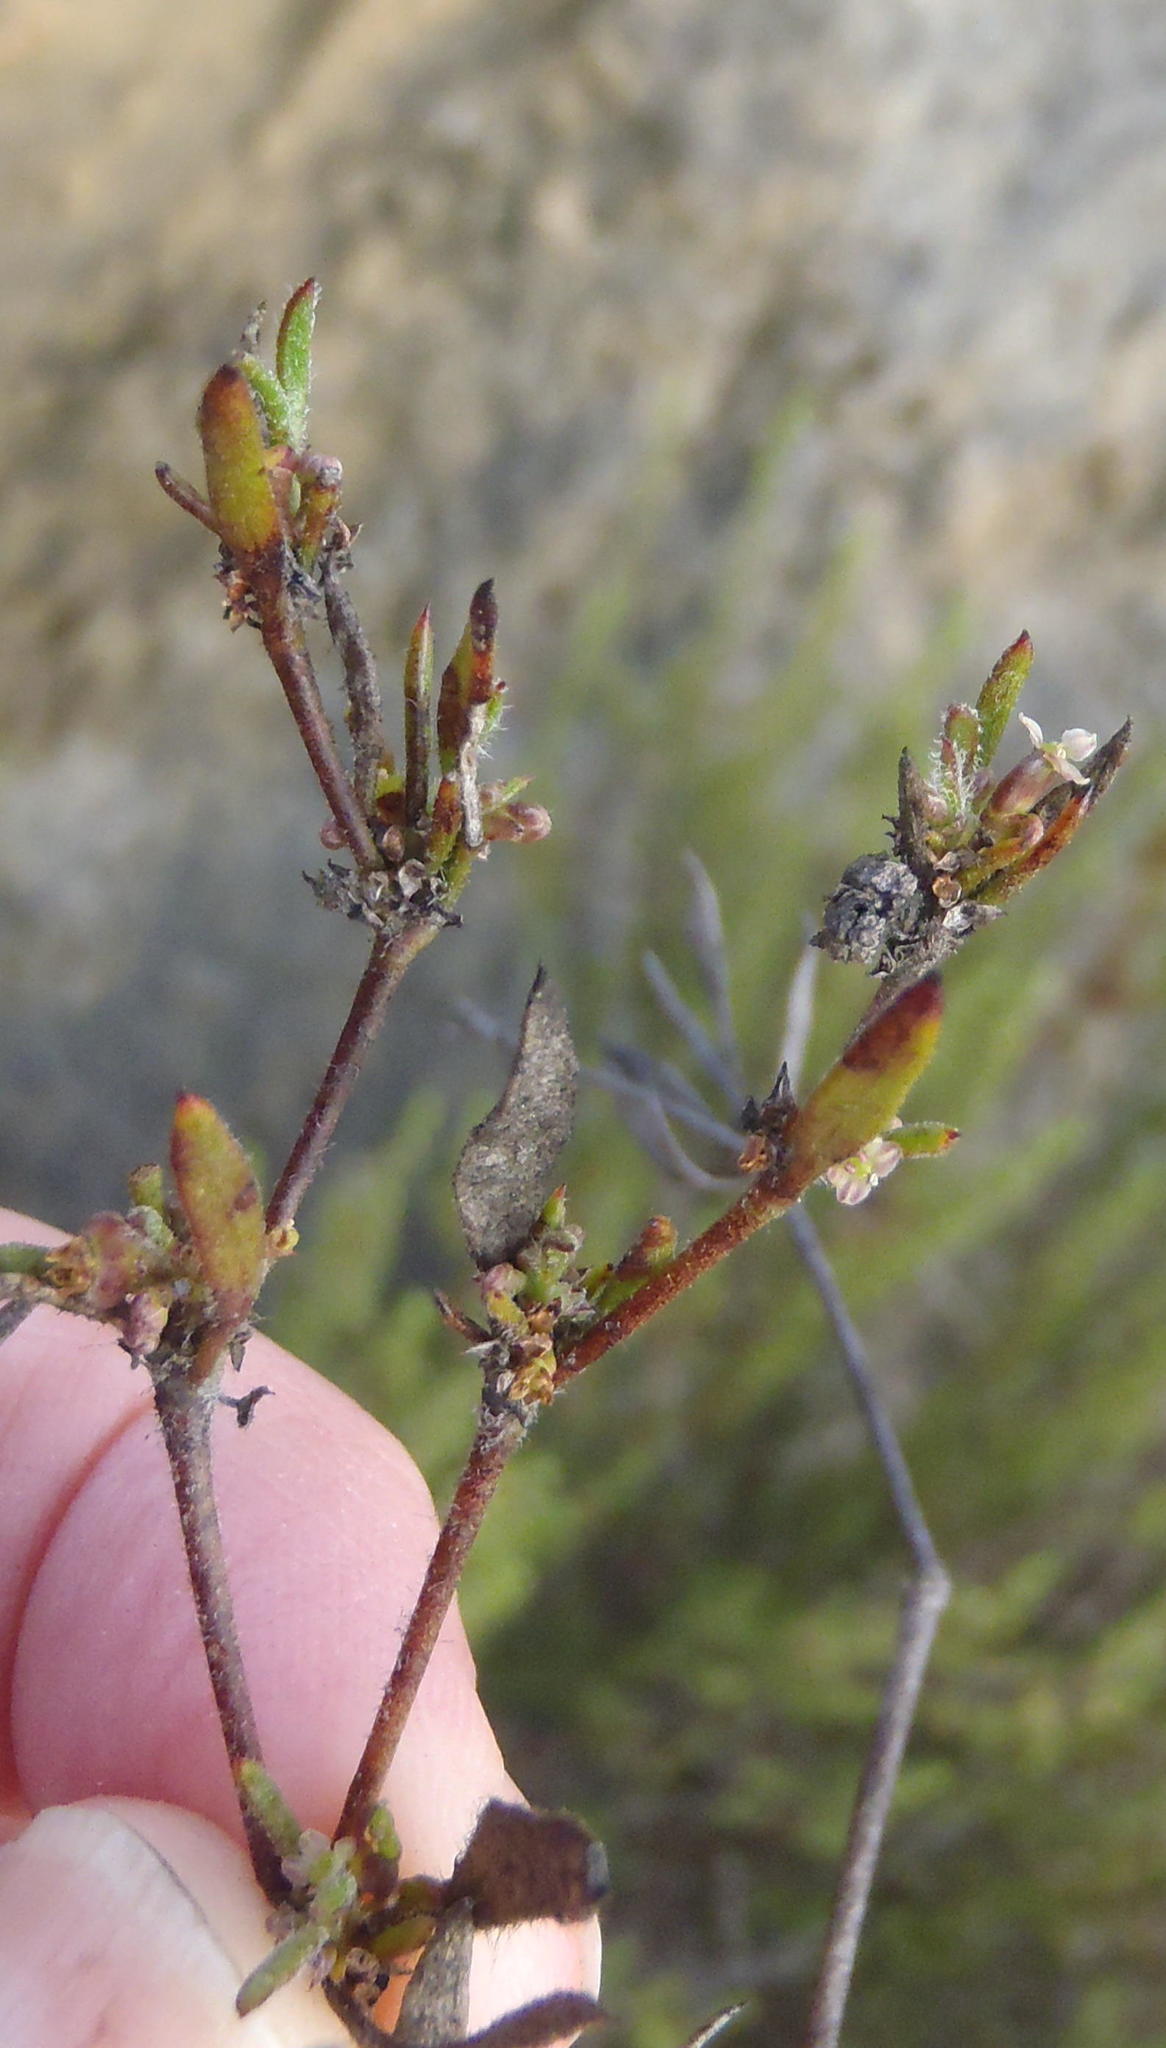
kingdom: Plantae
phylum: Tracheophyta
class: Magnoliopsida
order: Apiales
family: Apiaceae
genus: Centella
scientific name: Centella brachycarpa
